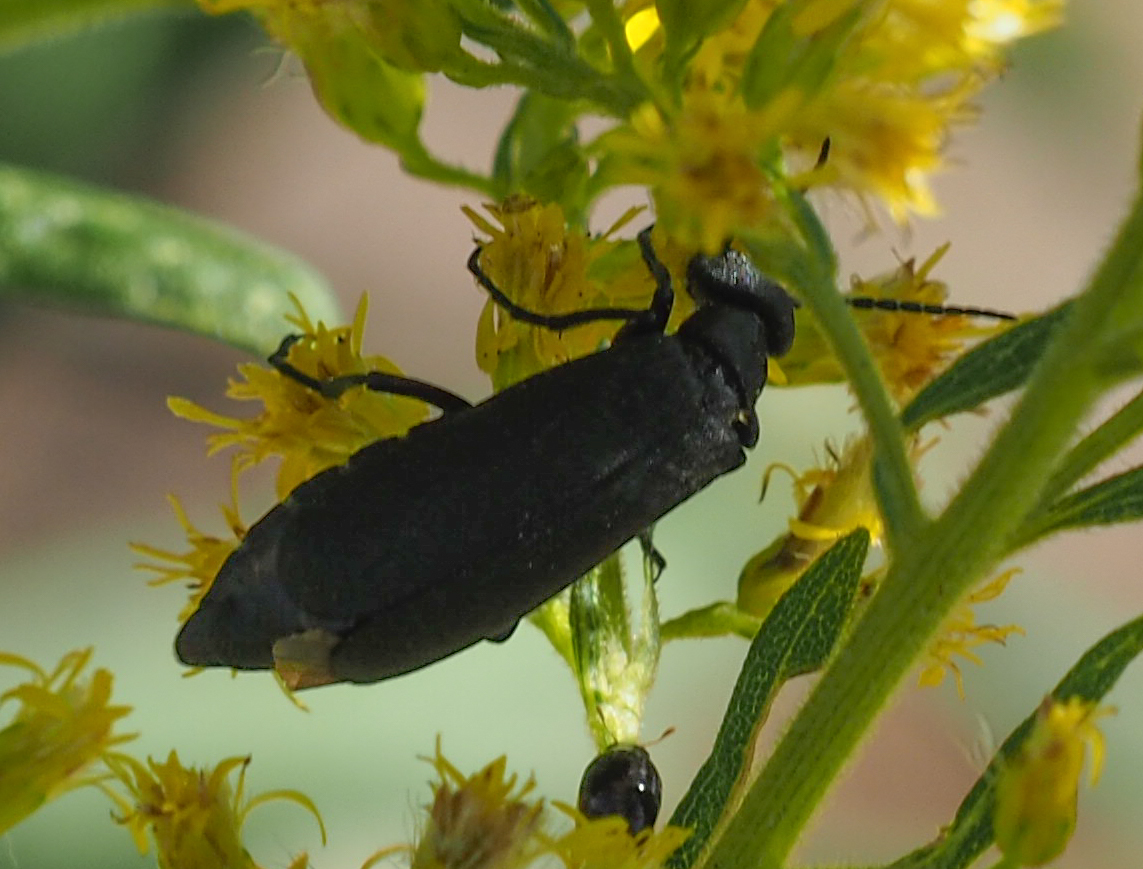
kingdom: Animalia
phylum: Arthropoda
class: Insecta
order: Coleoptera
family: Meloidae
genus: Epicauta
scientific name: Epicauta pensylvanica
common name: Black blister beetle
